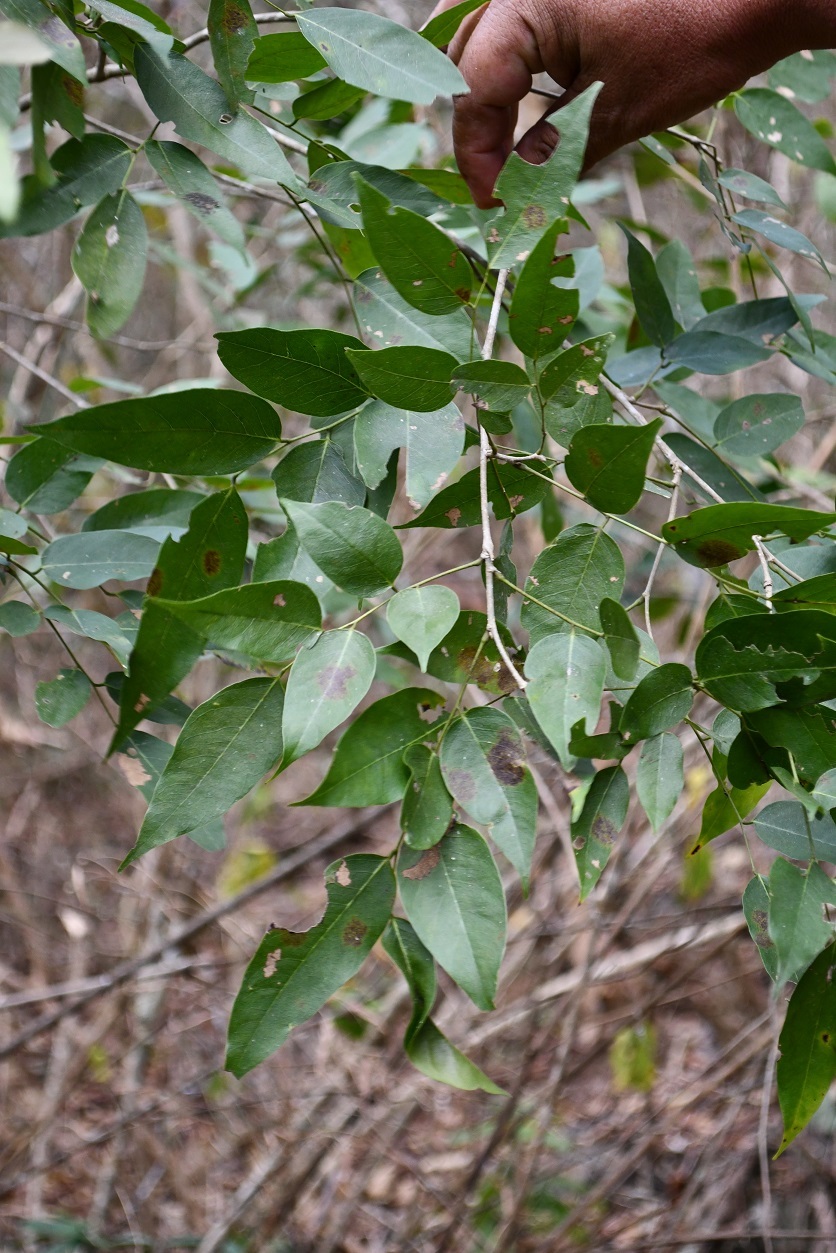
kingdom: Plantae
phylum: Tracheophyta
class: Magnoliopsida
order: Fabales
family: Fabaceae
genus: Dalbergia
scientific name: Dalbergia calycina
